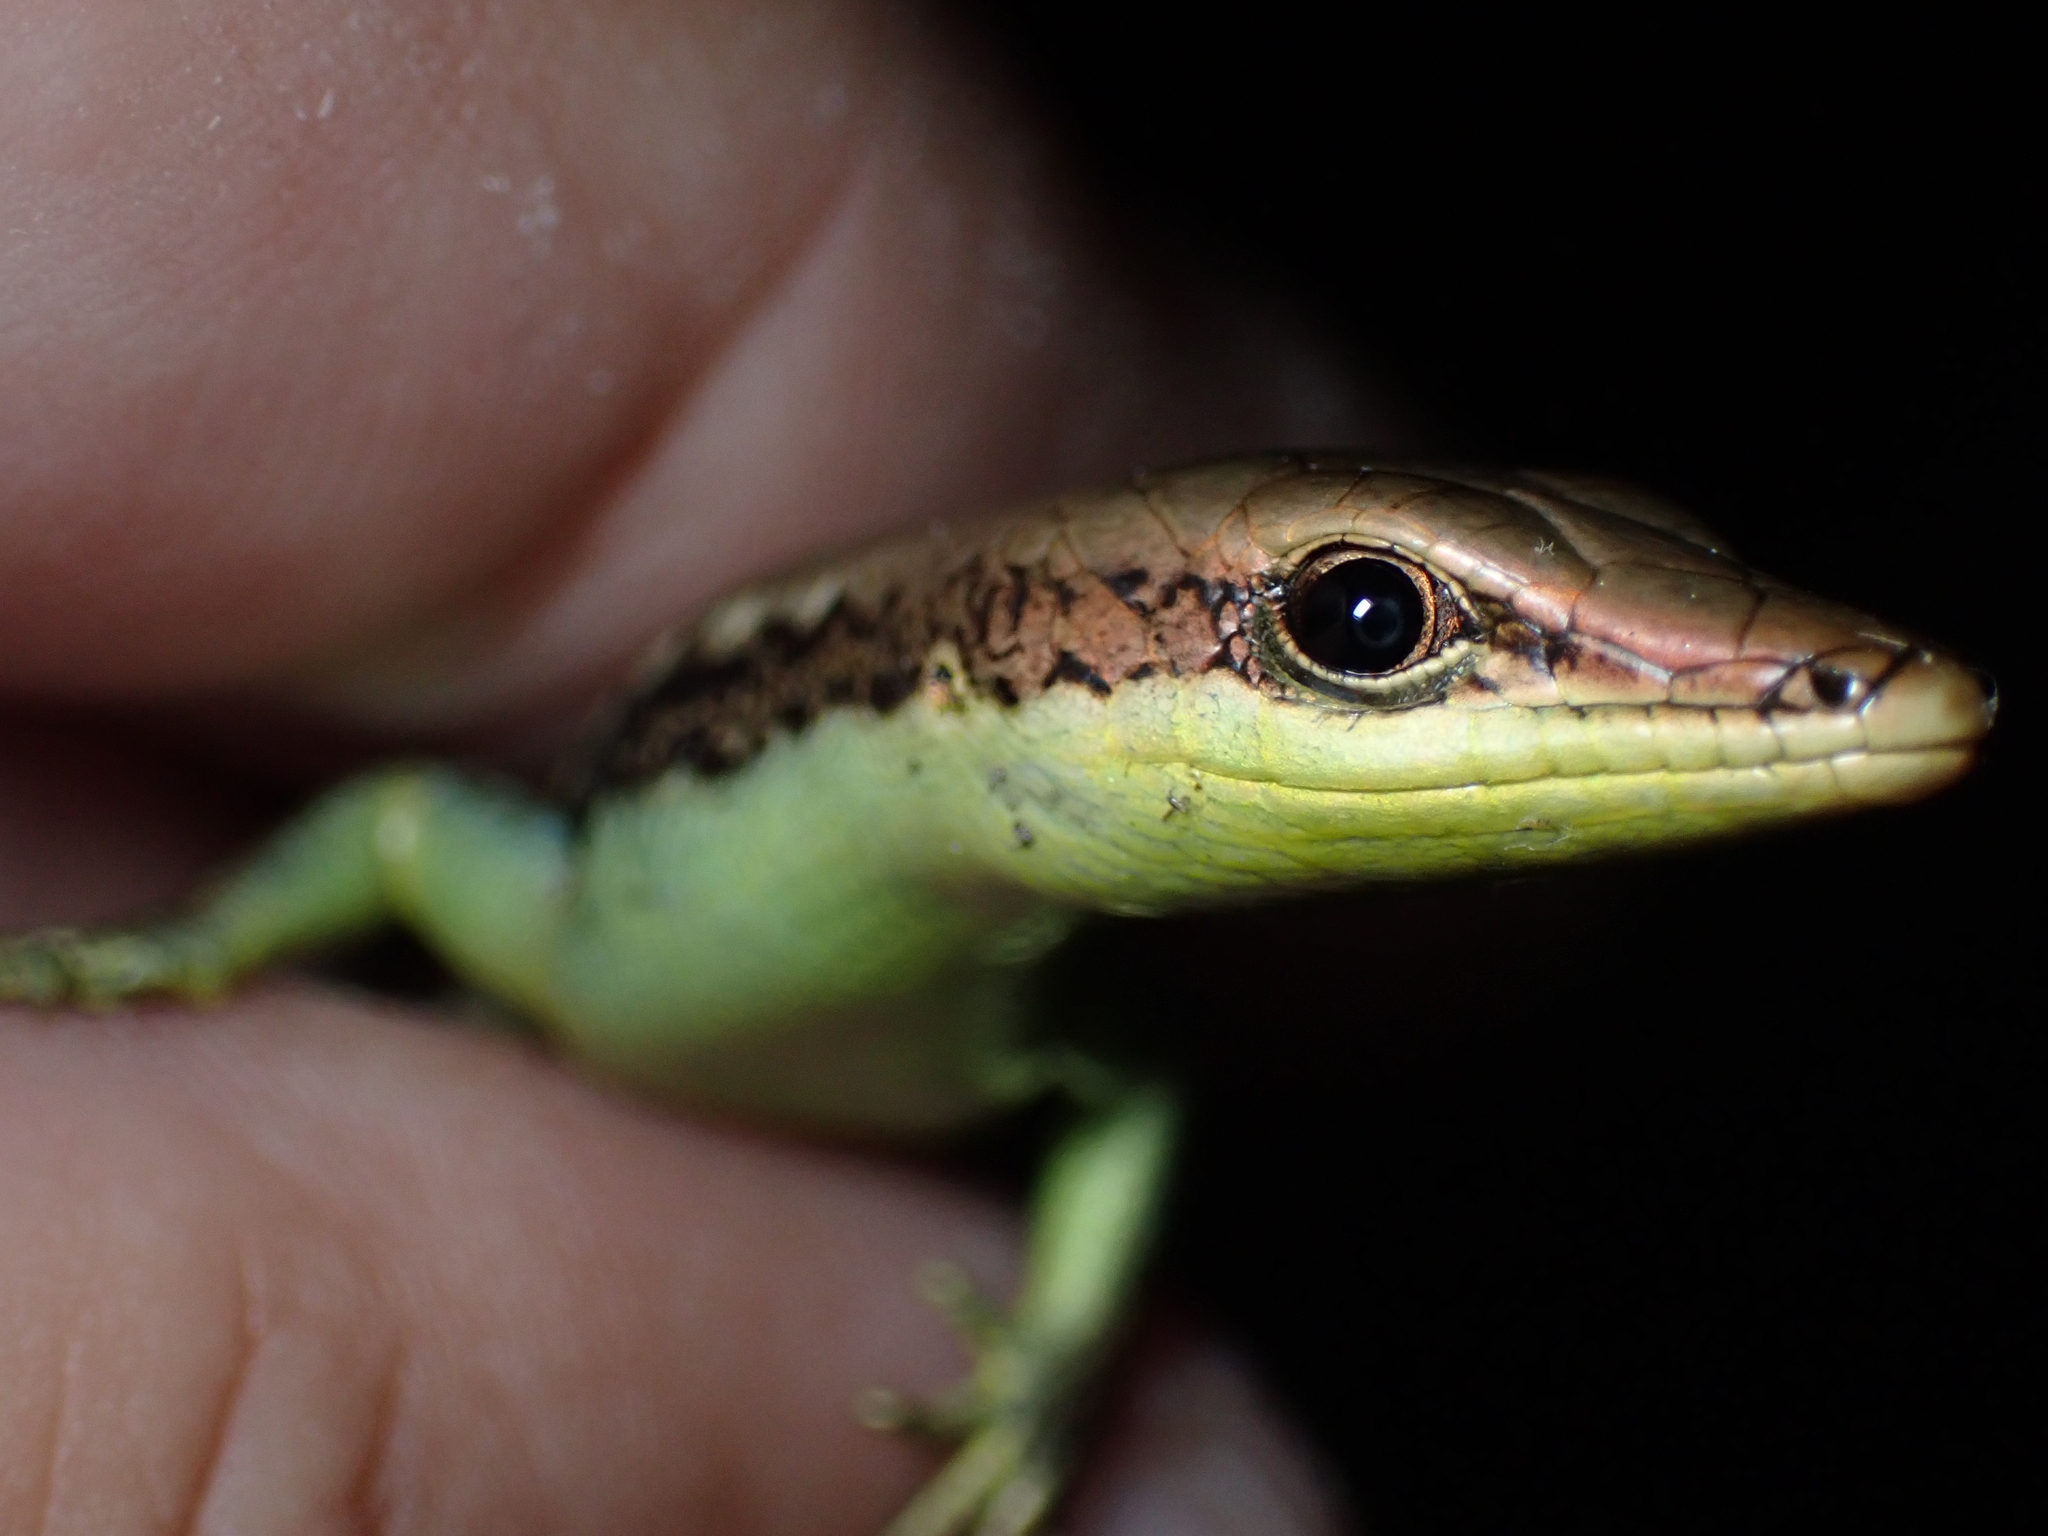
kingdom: Animalia
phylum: Chordata
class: Squamata
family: Scincidae
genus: Emoia
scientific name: Emoia cyanogaster
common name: Teal emo skink
